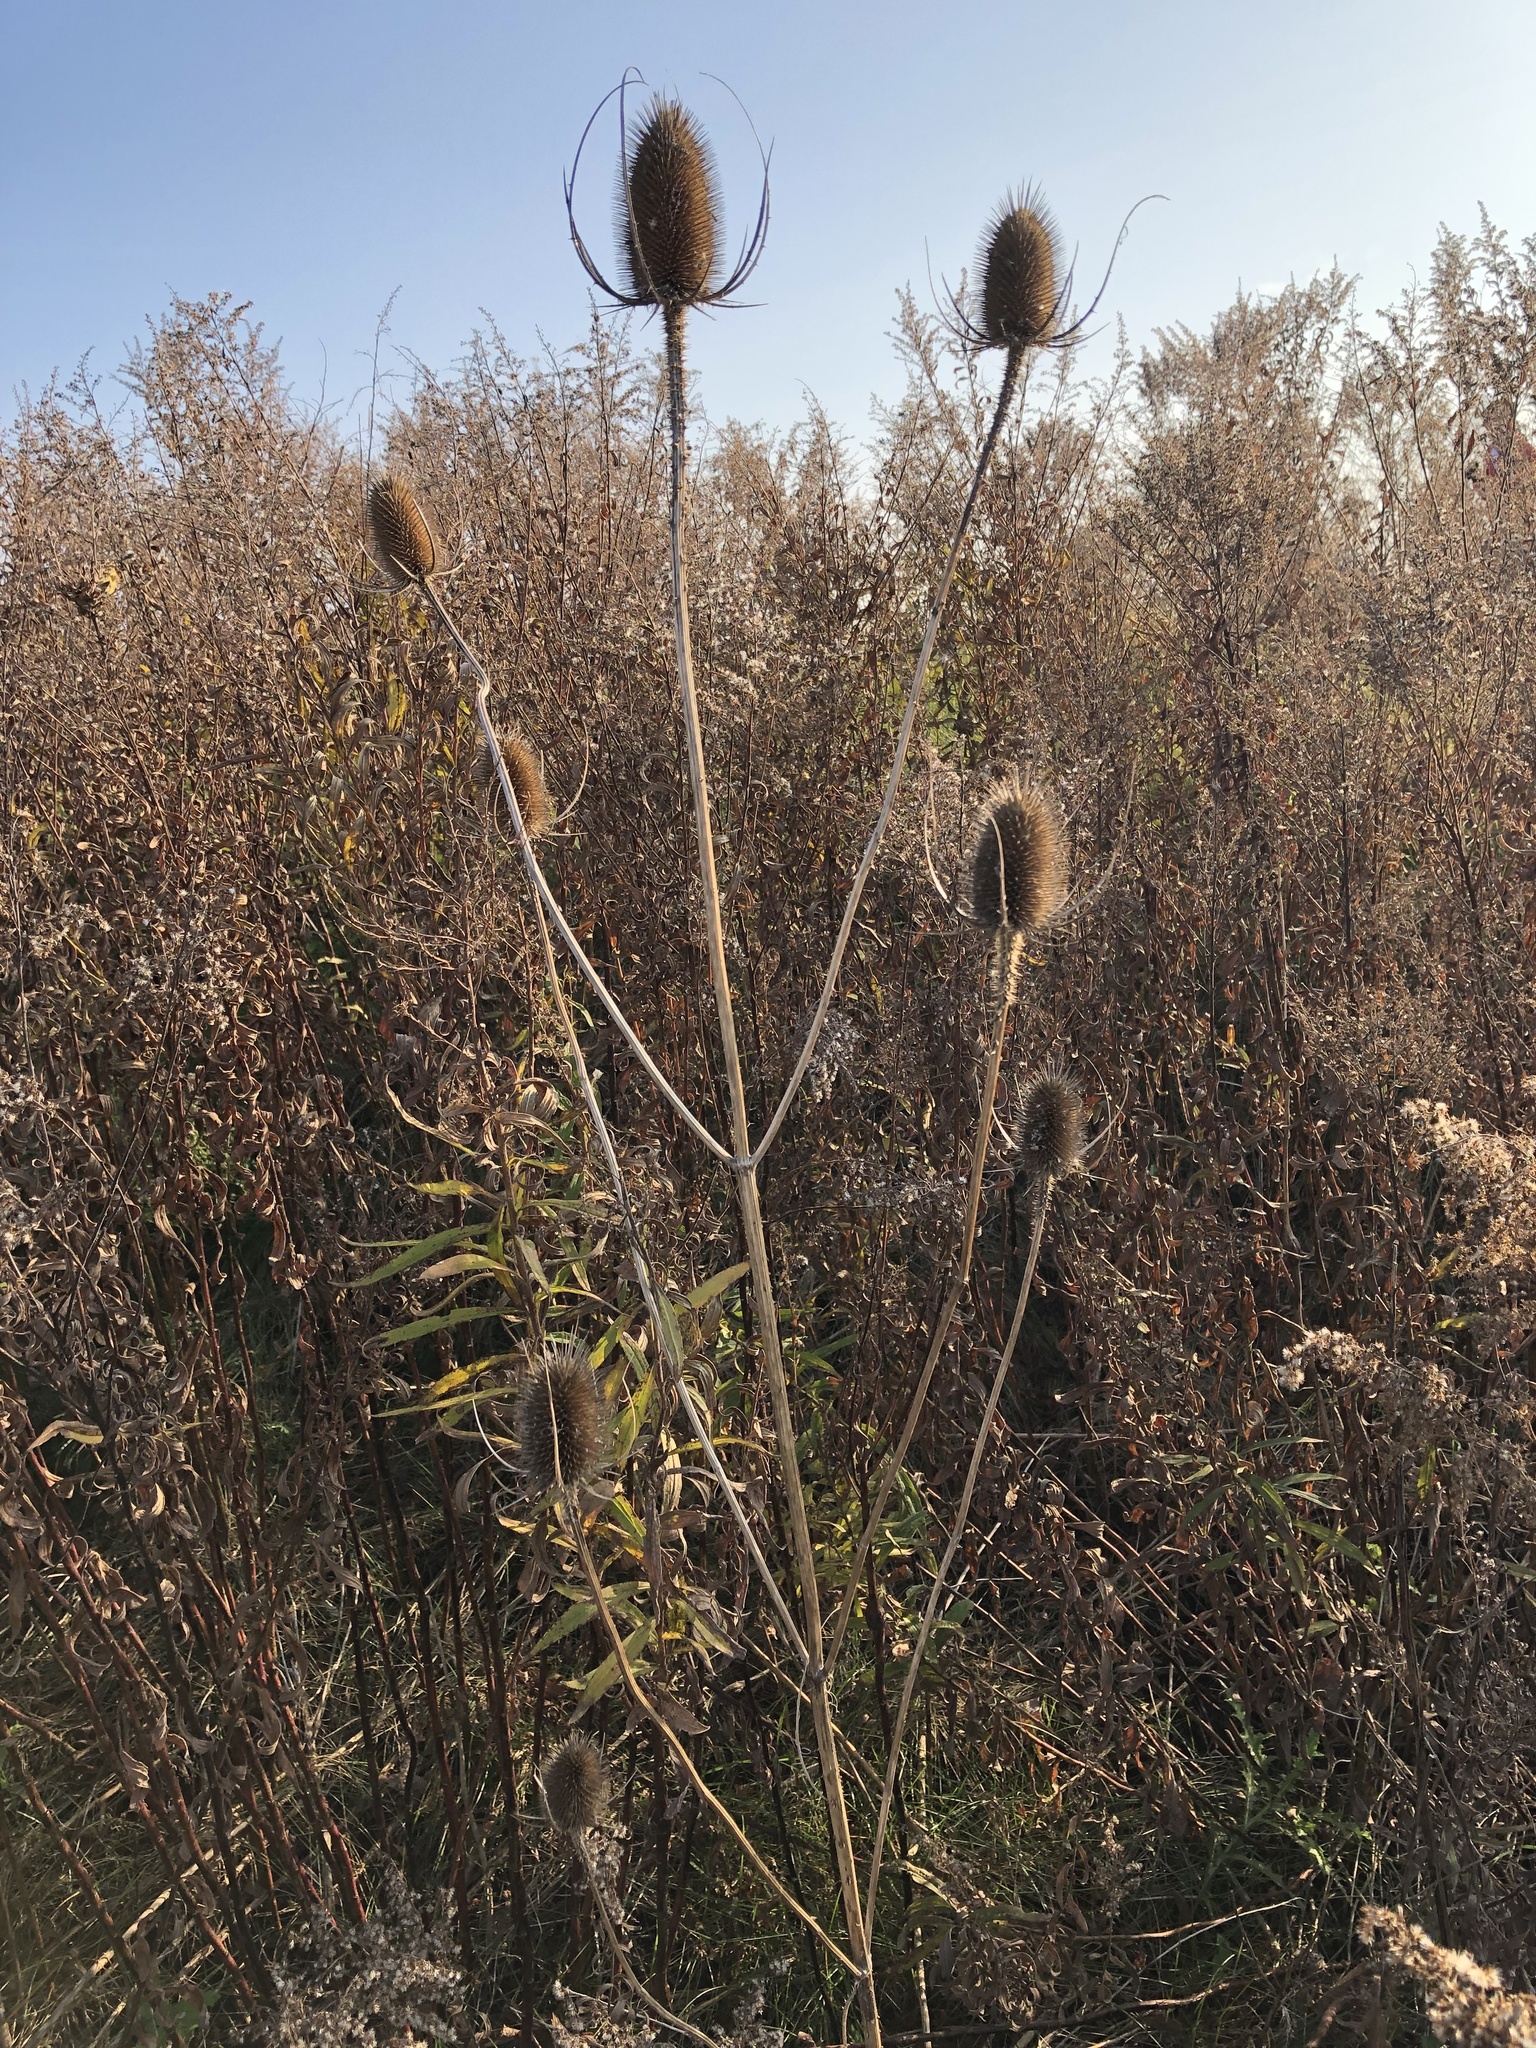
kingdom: Plantae
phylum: Tracheophyta
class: Magnoliopsida
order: Dipsacales
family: Caprifoliaceae
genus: Dipsacus
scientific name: Dipsacus fullonum
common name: Teasel
